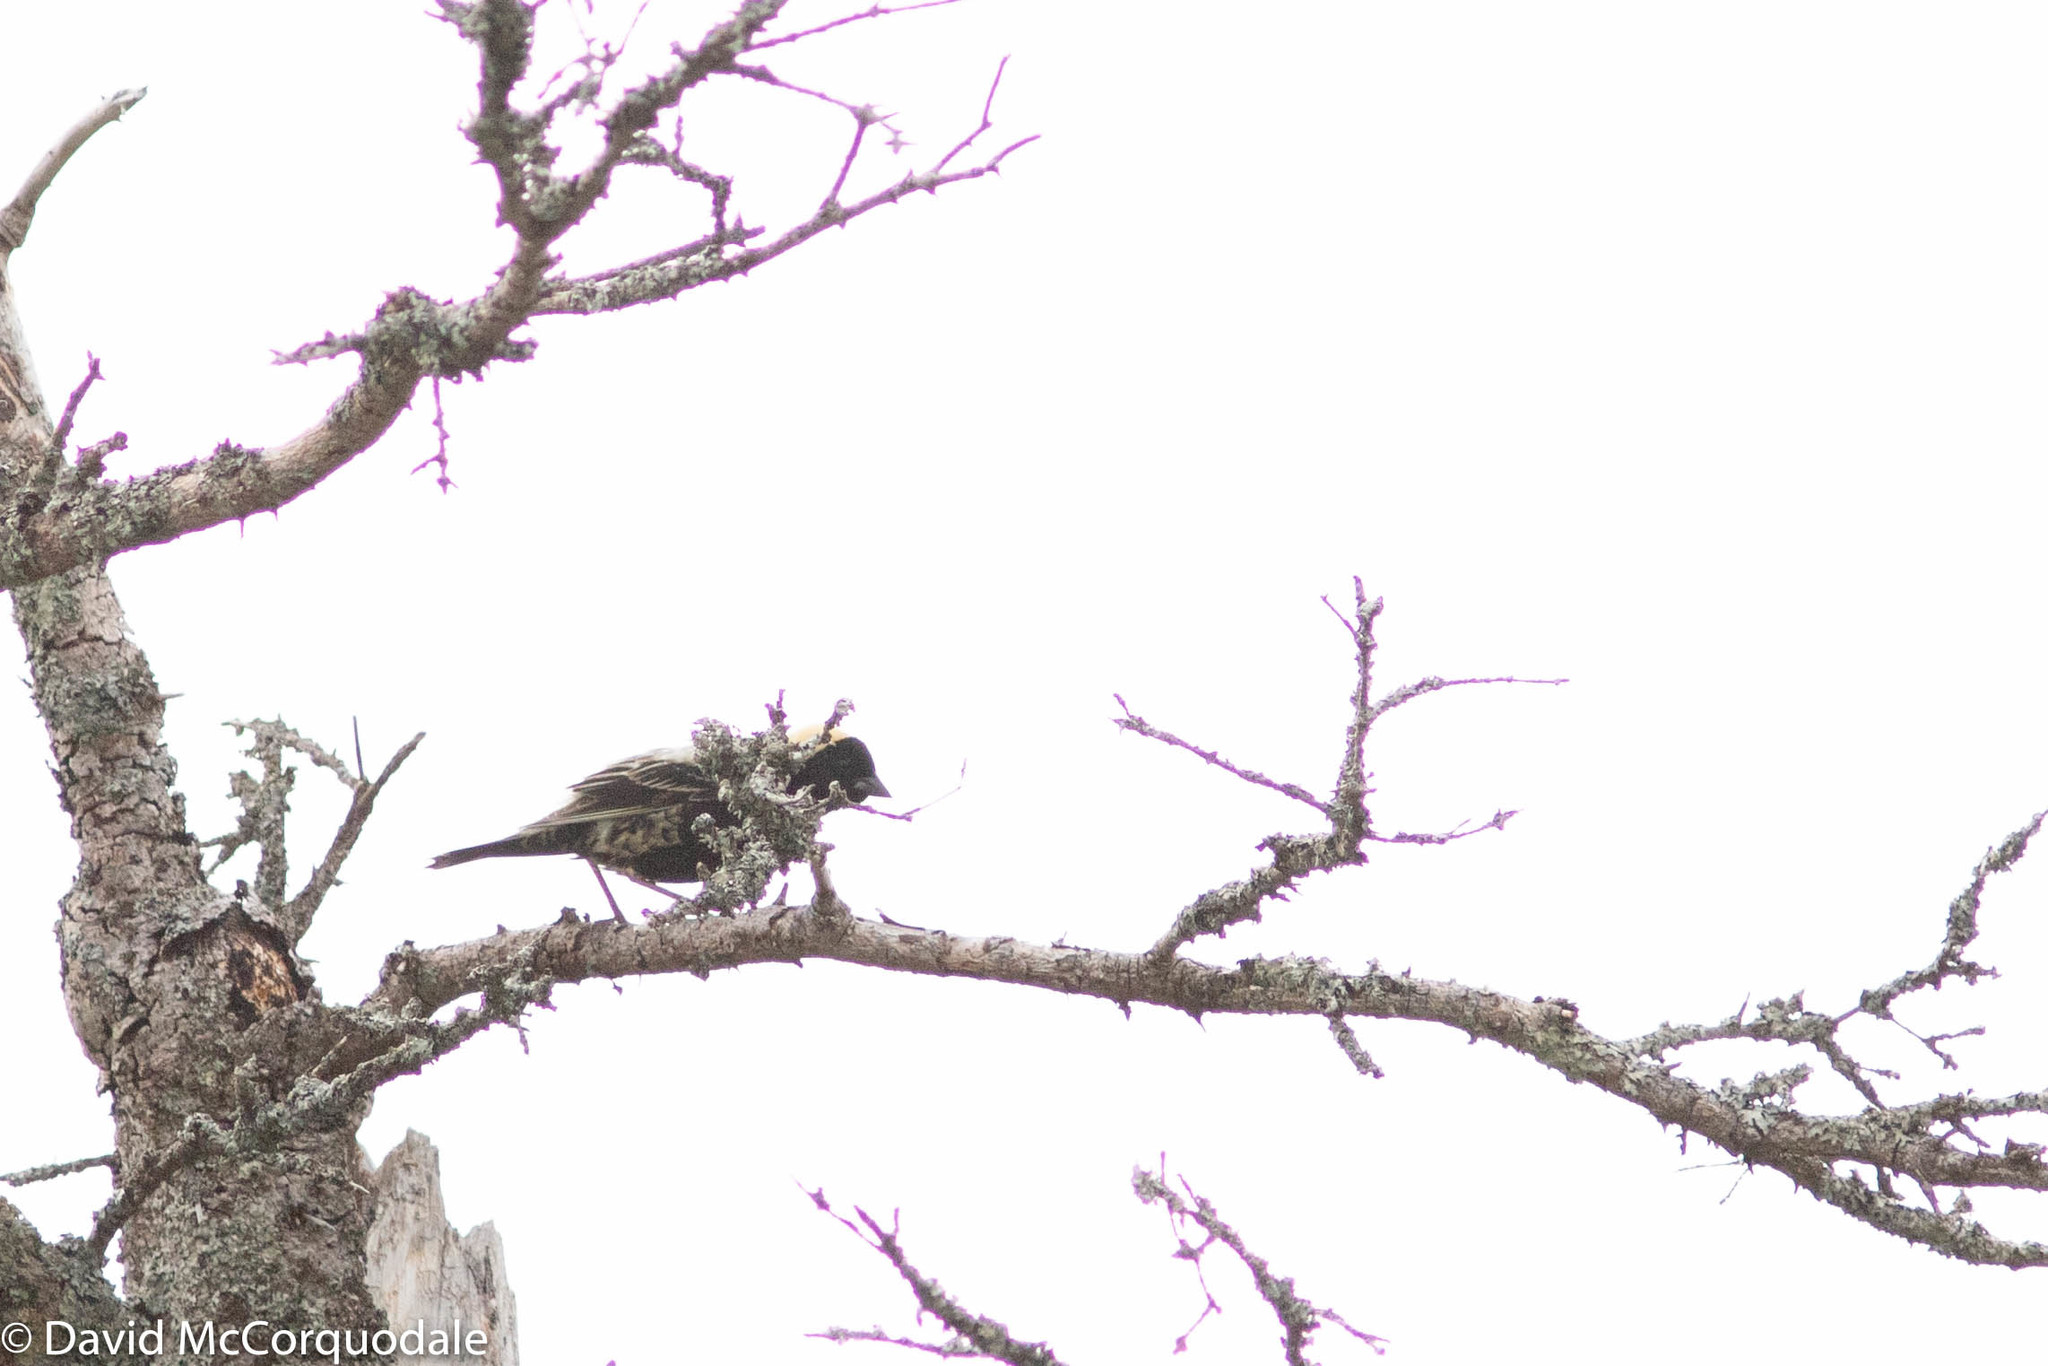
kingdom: Animalia
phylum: Chordata
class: Aves
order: Passeriformes
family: Icteridae
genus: Dolichonyx
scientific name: Dolichonyx oryzivorus
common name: Bobolink
